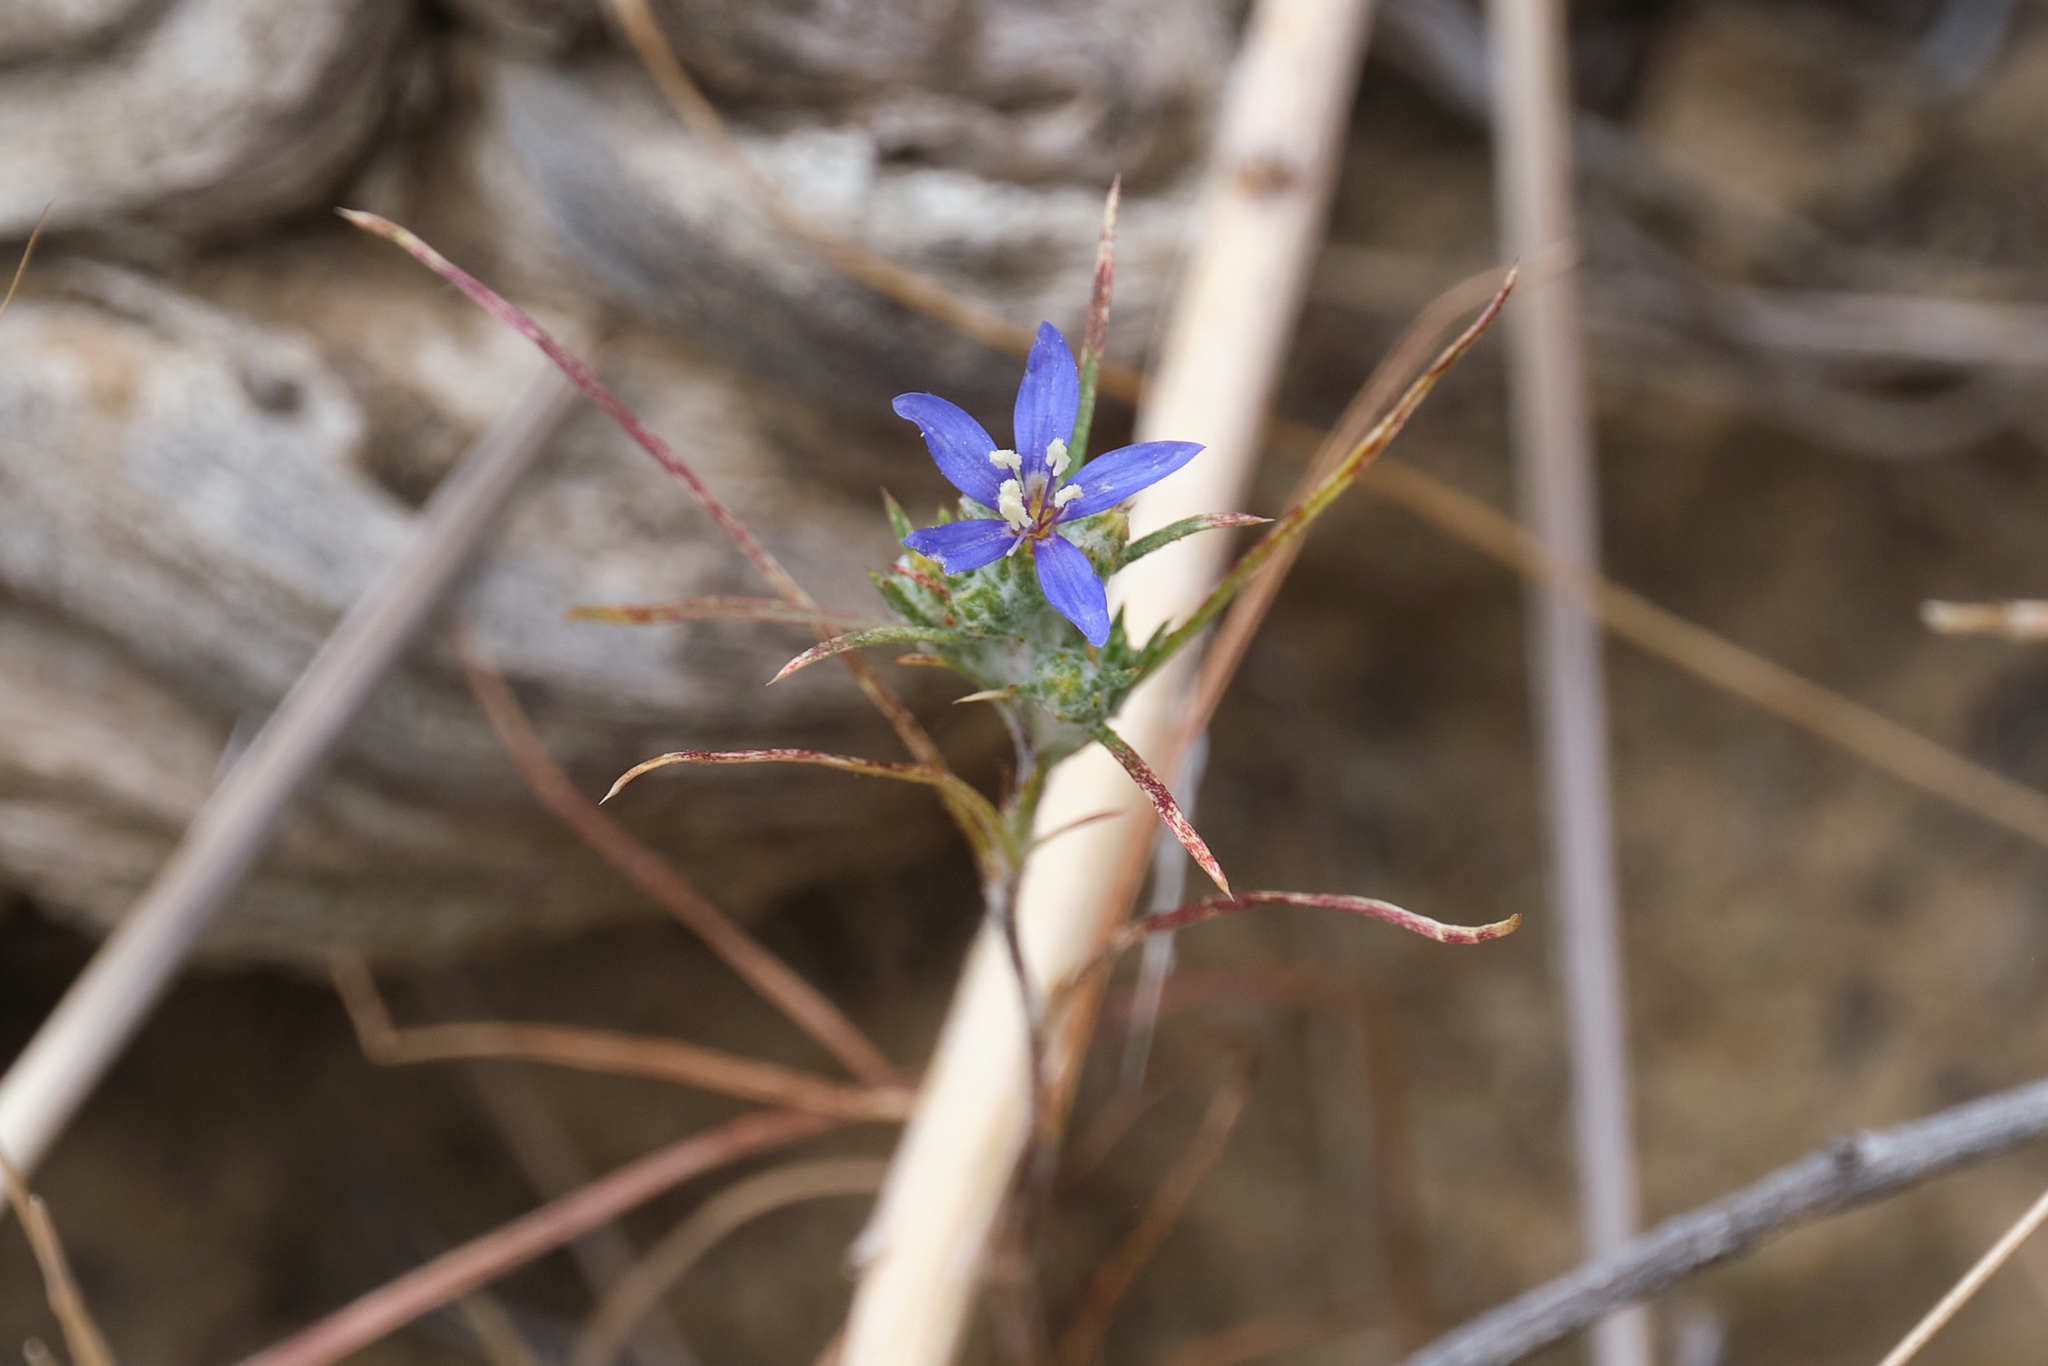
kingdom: Plantae
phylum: Tracheophyta
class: Magnoliopsida
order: Ericales
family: Polemoniaceae
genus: Eriastrum
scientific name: Eriastrum sapphirinum
